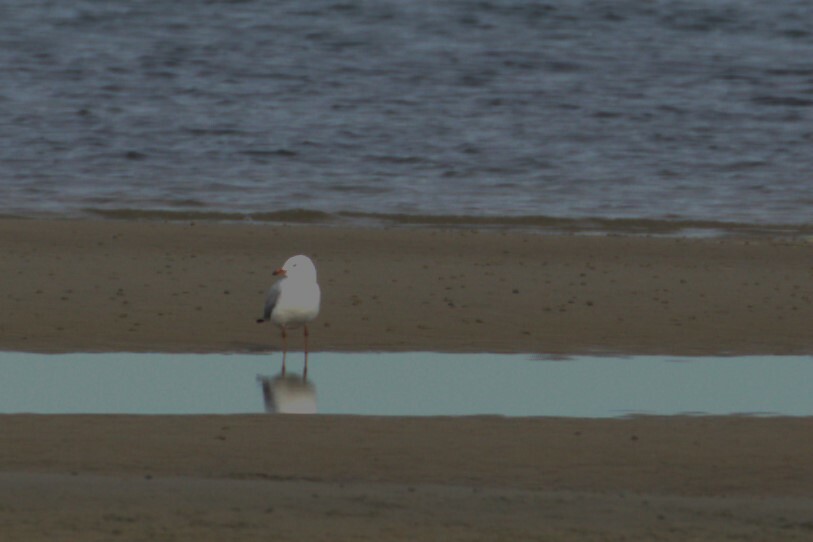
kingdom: Animalia
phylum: Chordata
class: Aves
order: Charadriiformes
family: Laridae
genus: Chroicocephalus
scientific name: Chroicocephalus novaehollandiae
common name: Silver gull
